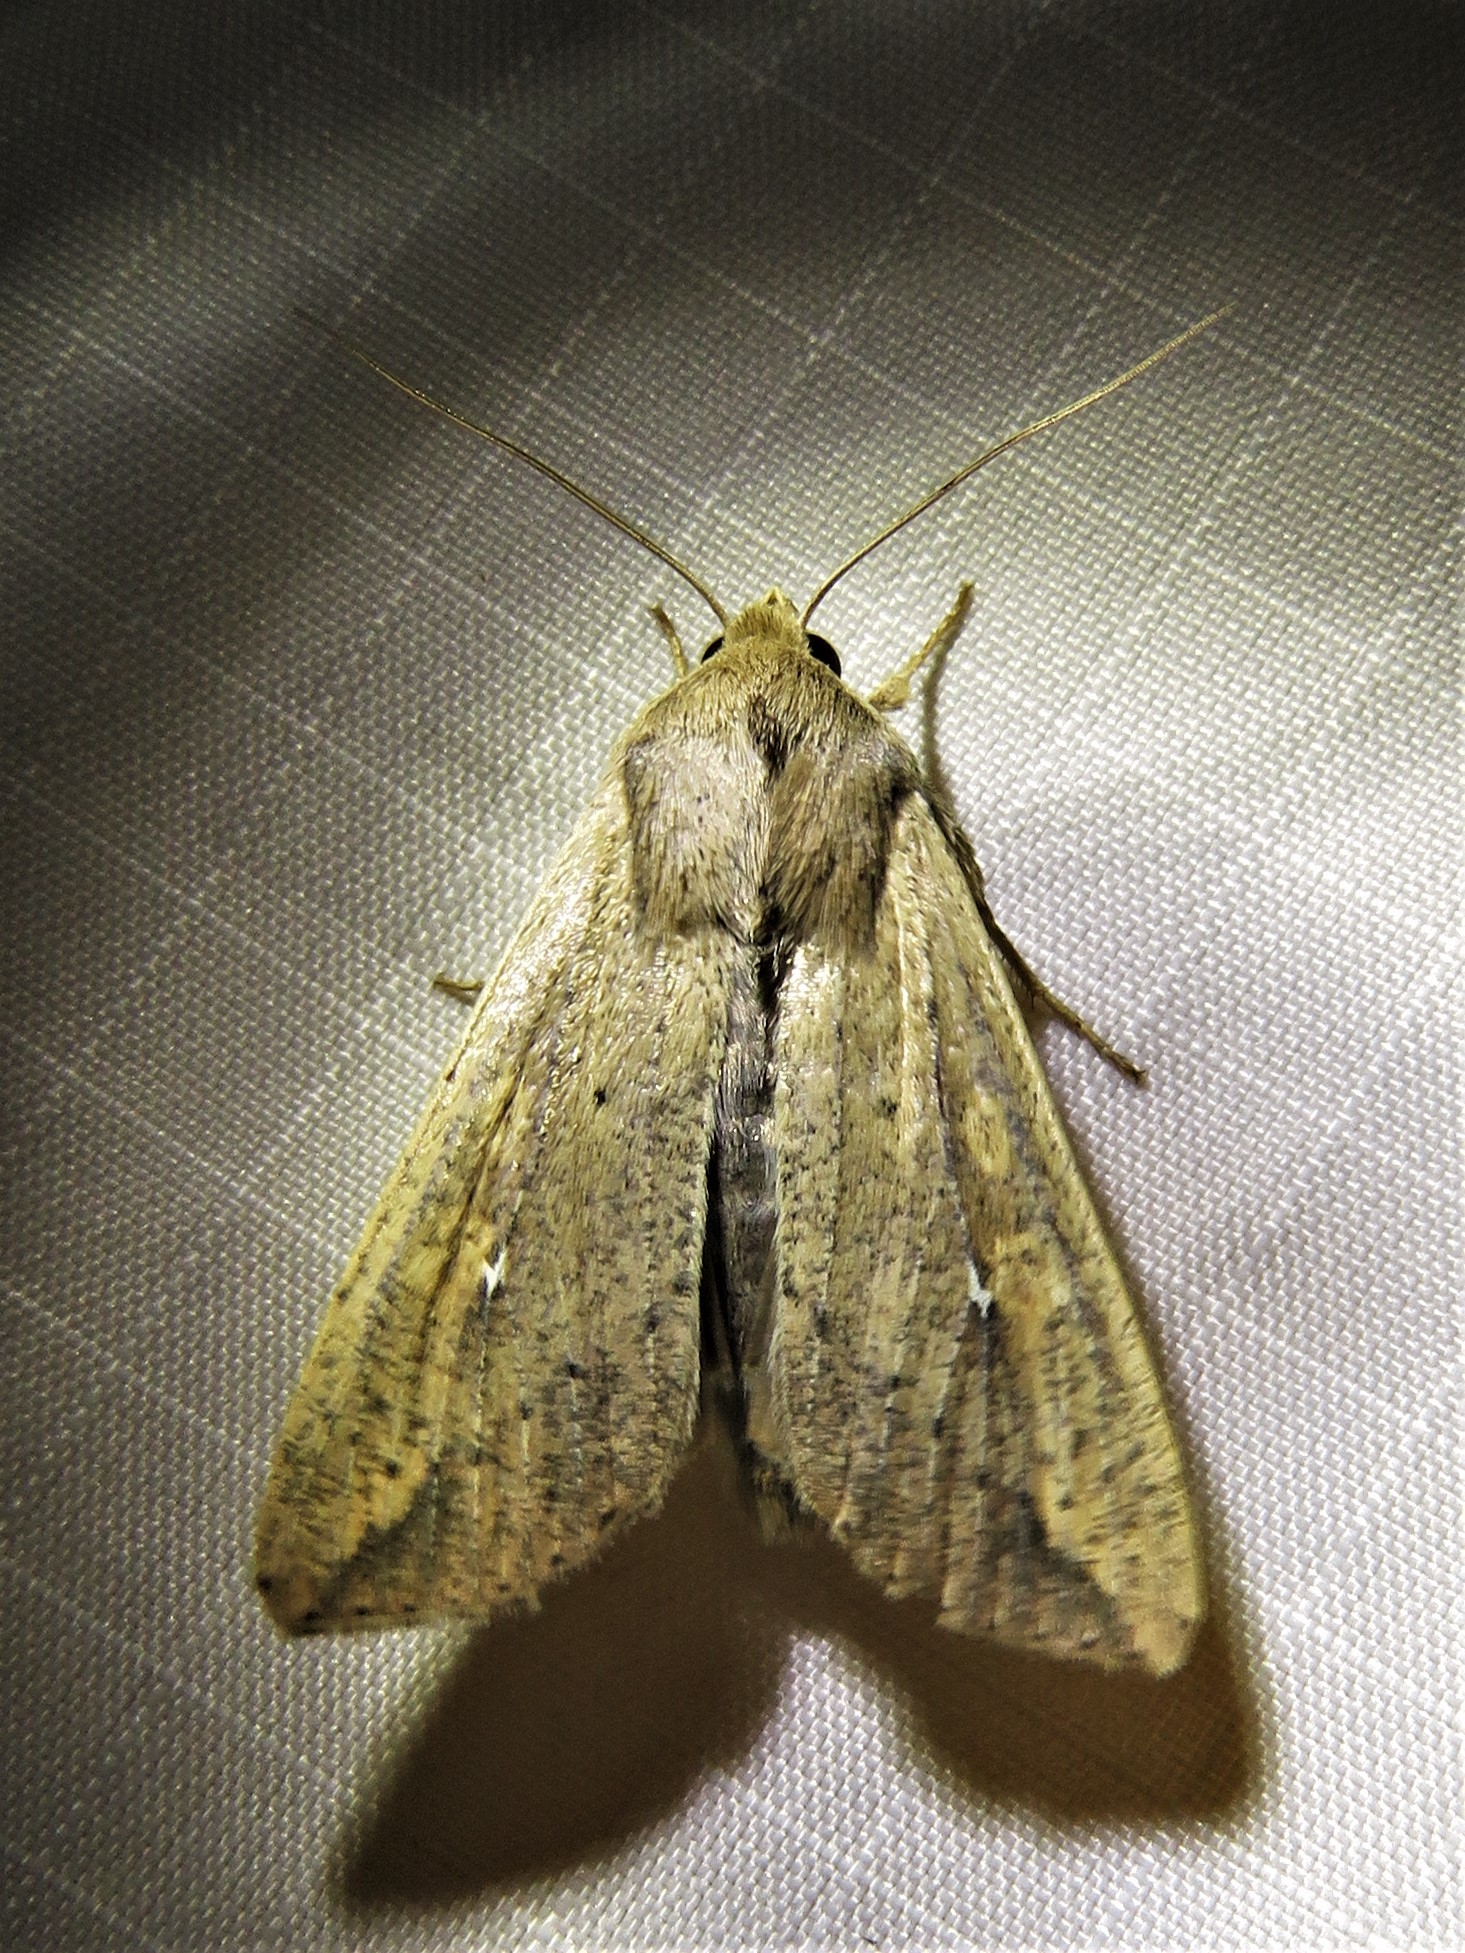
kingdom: Animalia
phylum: Arthropoda
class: Insecta
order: Lepidoptera
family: Noctuidae
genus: Mythimna
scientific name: Mythimna unipuncta
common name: White-speck
